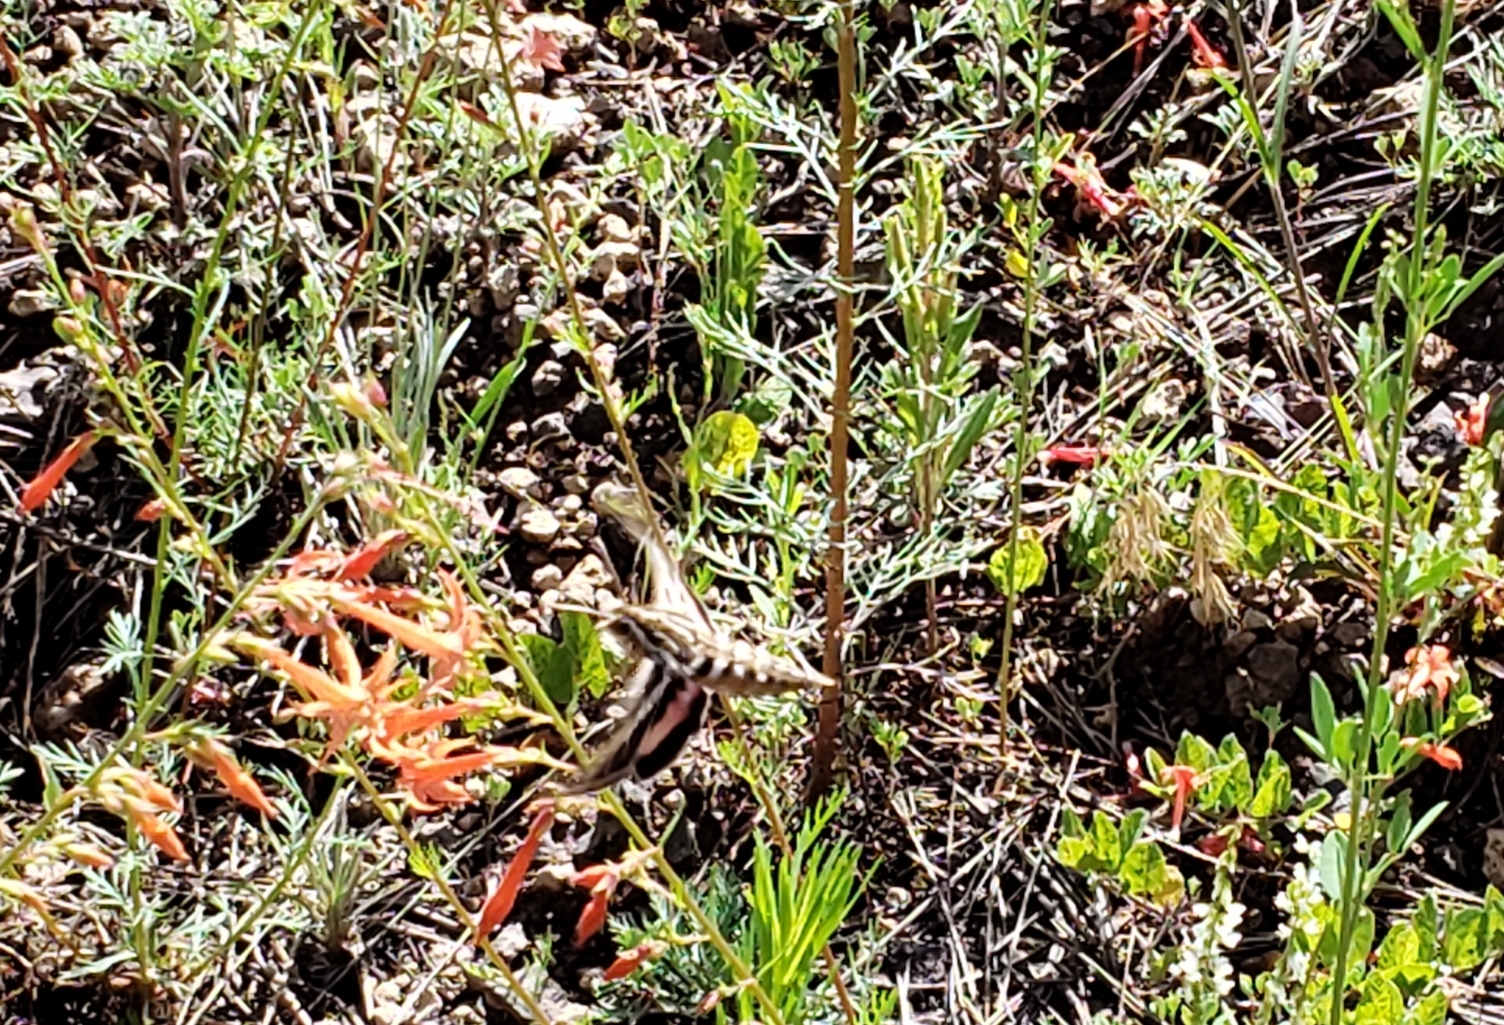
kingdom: Plantae
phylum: Tracheophyta
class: Magnoliopsida
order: Ericales
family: Polemoniaceae
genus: Ipomopsis
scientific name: Ipomopsis aggregata
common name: Scarlet gilia
